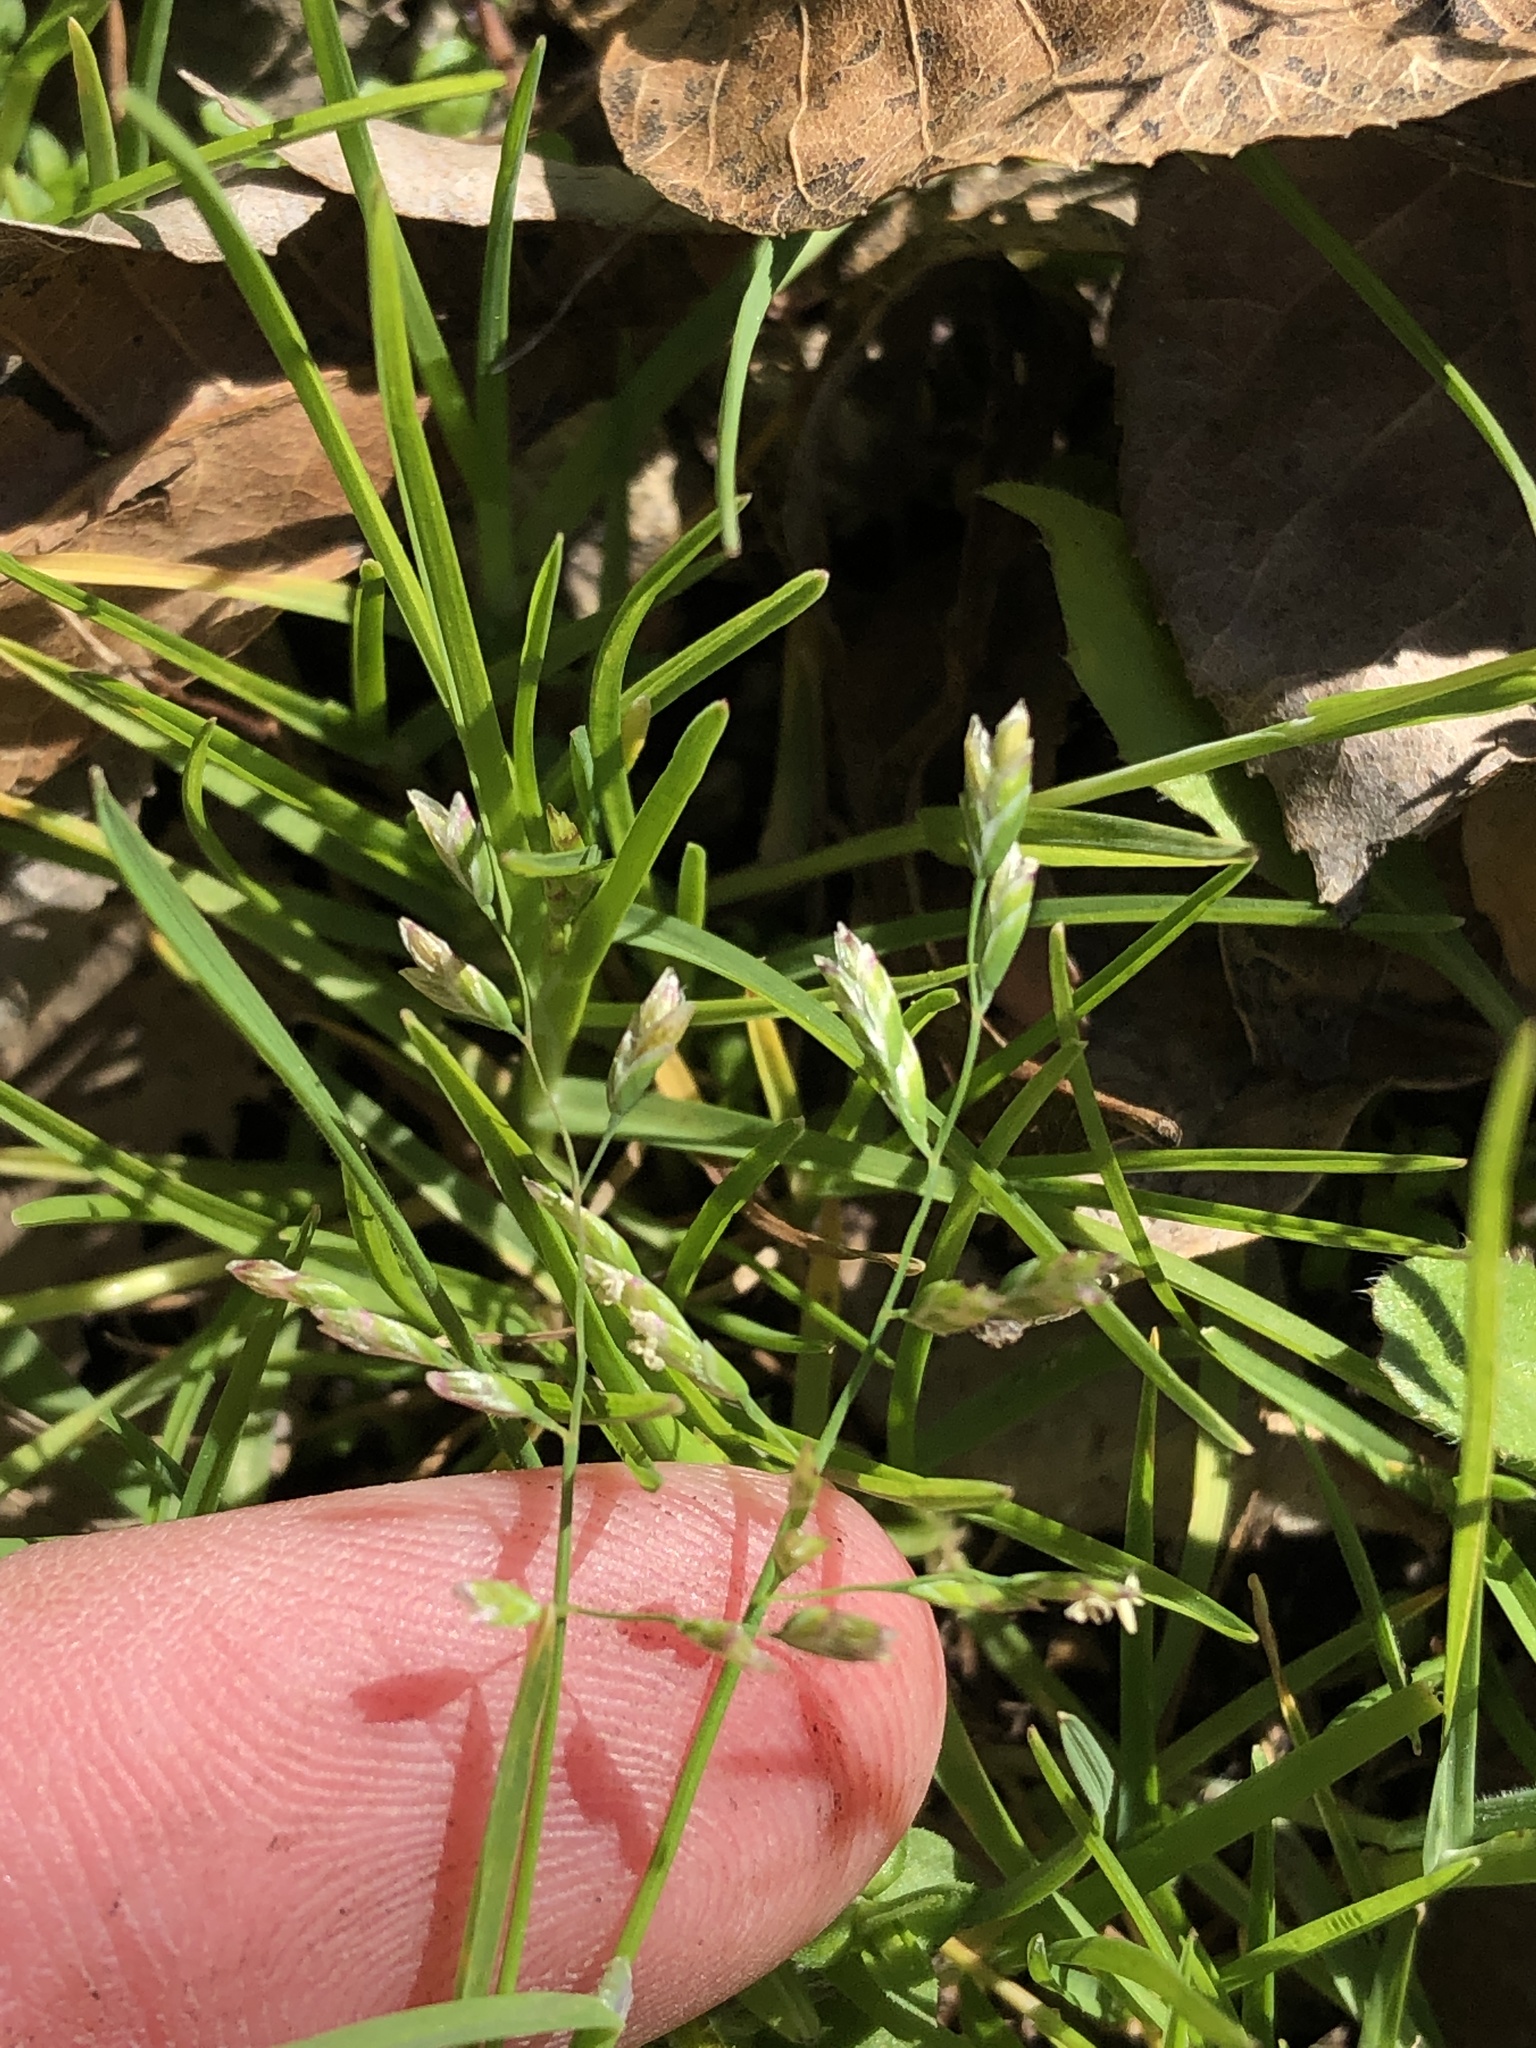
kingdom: Plantae
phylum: Tracheophyta
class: Liliopsida
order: Poales
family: Poaceae
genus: Poa
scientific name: Poa annua
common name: Annual bluegrass
